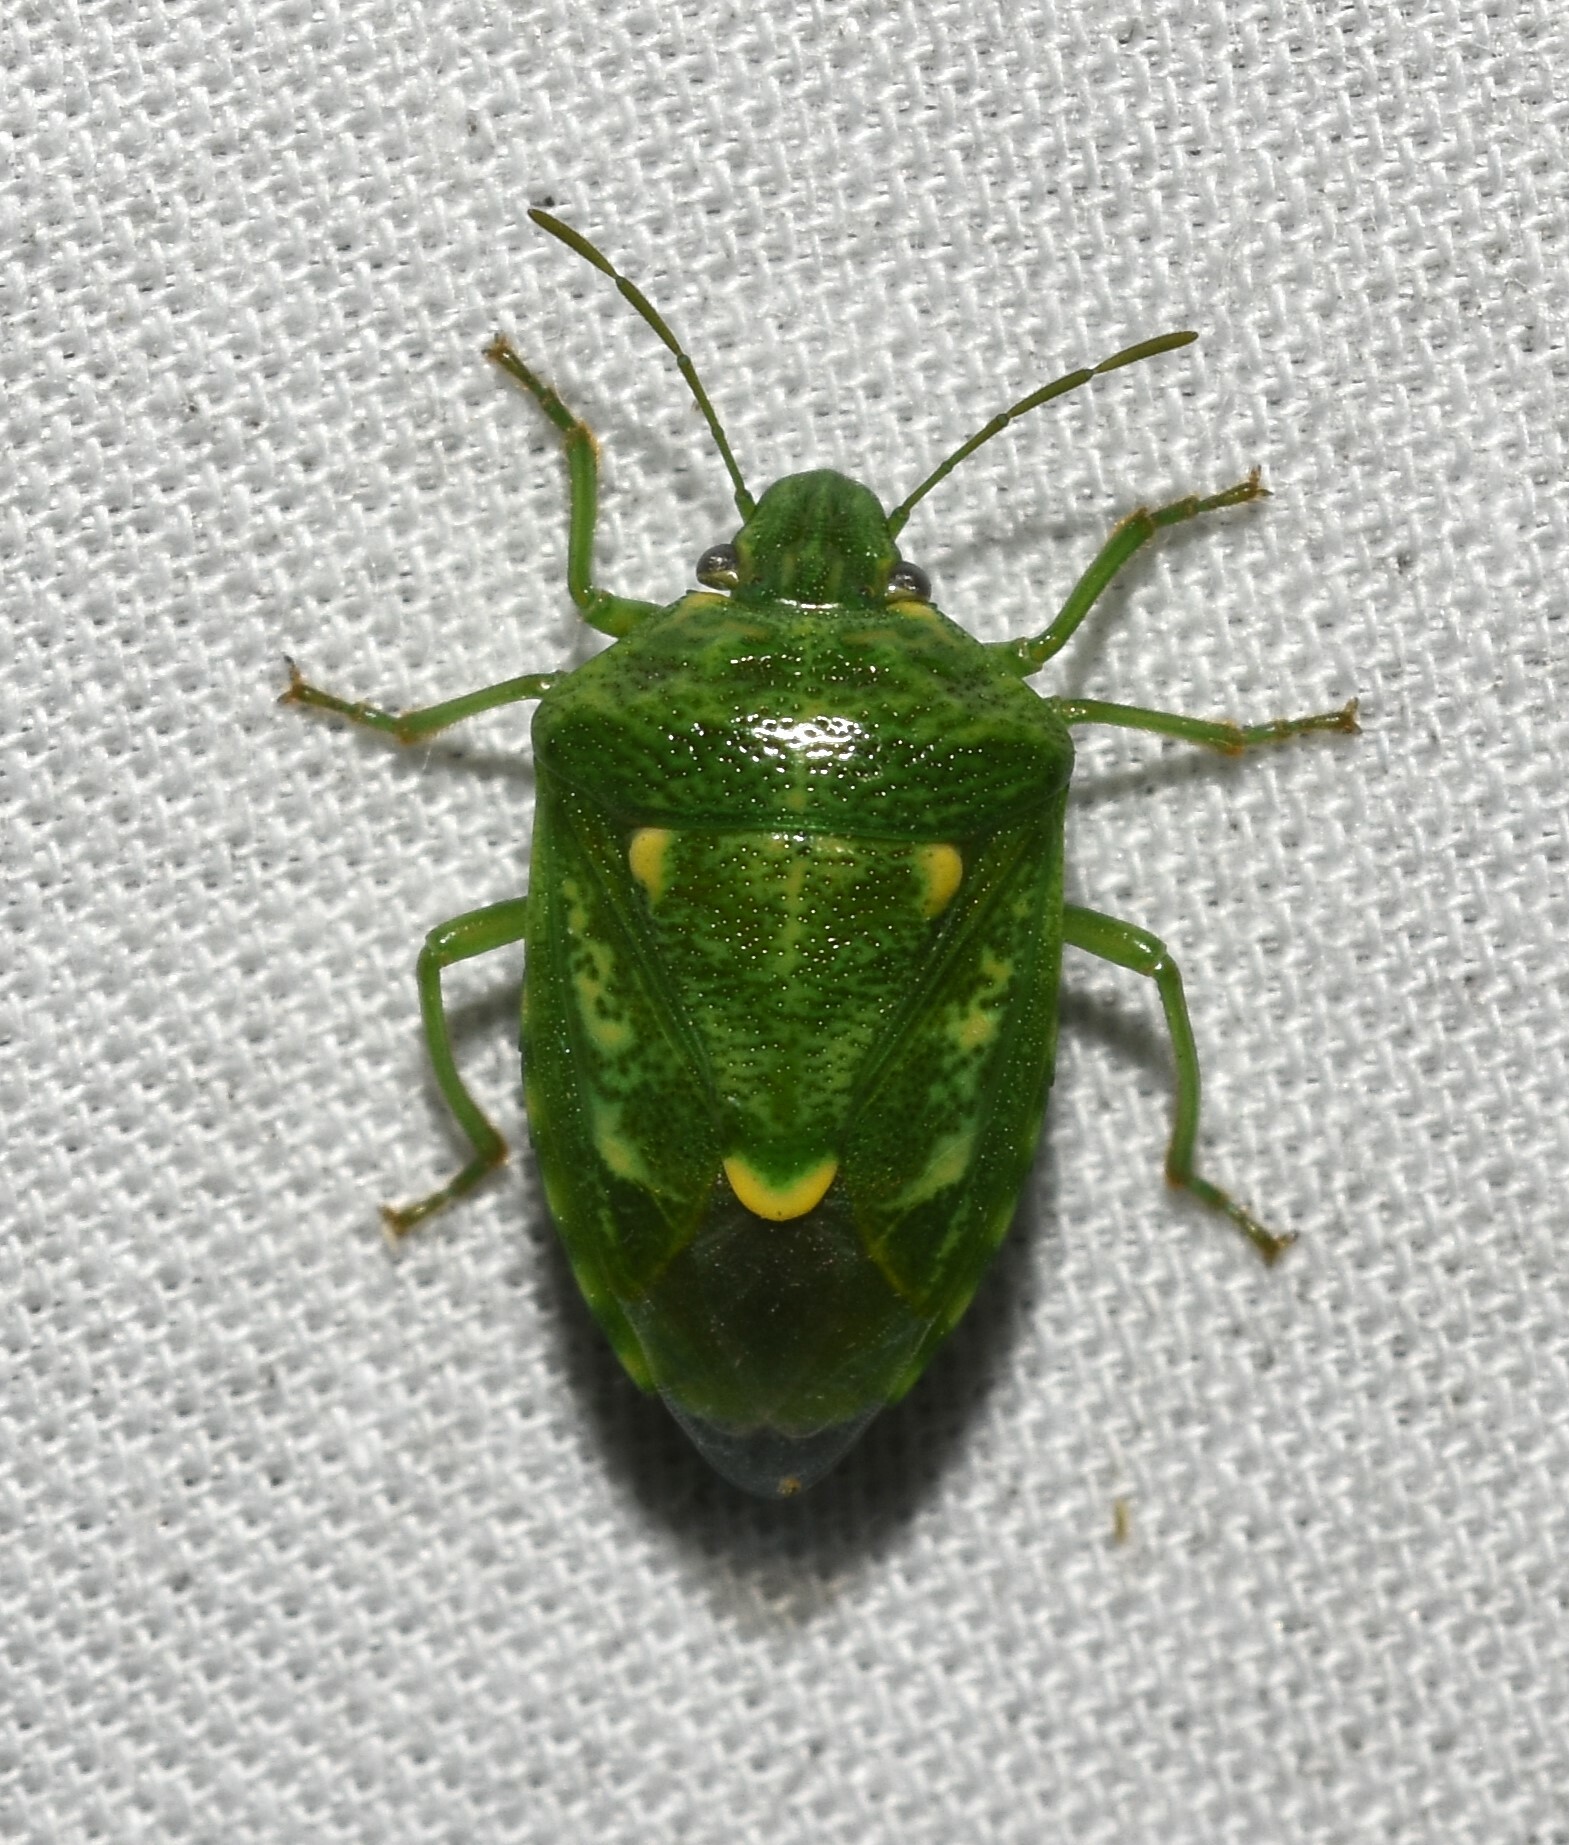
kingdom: Animalia
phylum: Arthropoda
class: Insecta
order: Hemiptera
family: Pentatomidae
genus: Banasa
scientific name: Banasa euchlora
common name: Cedar berry bug
